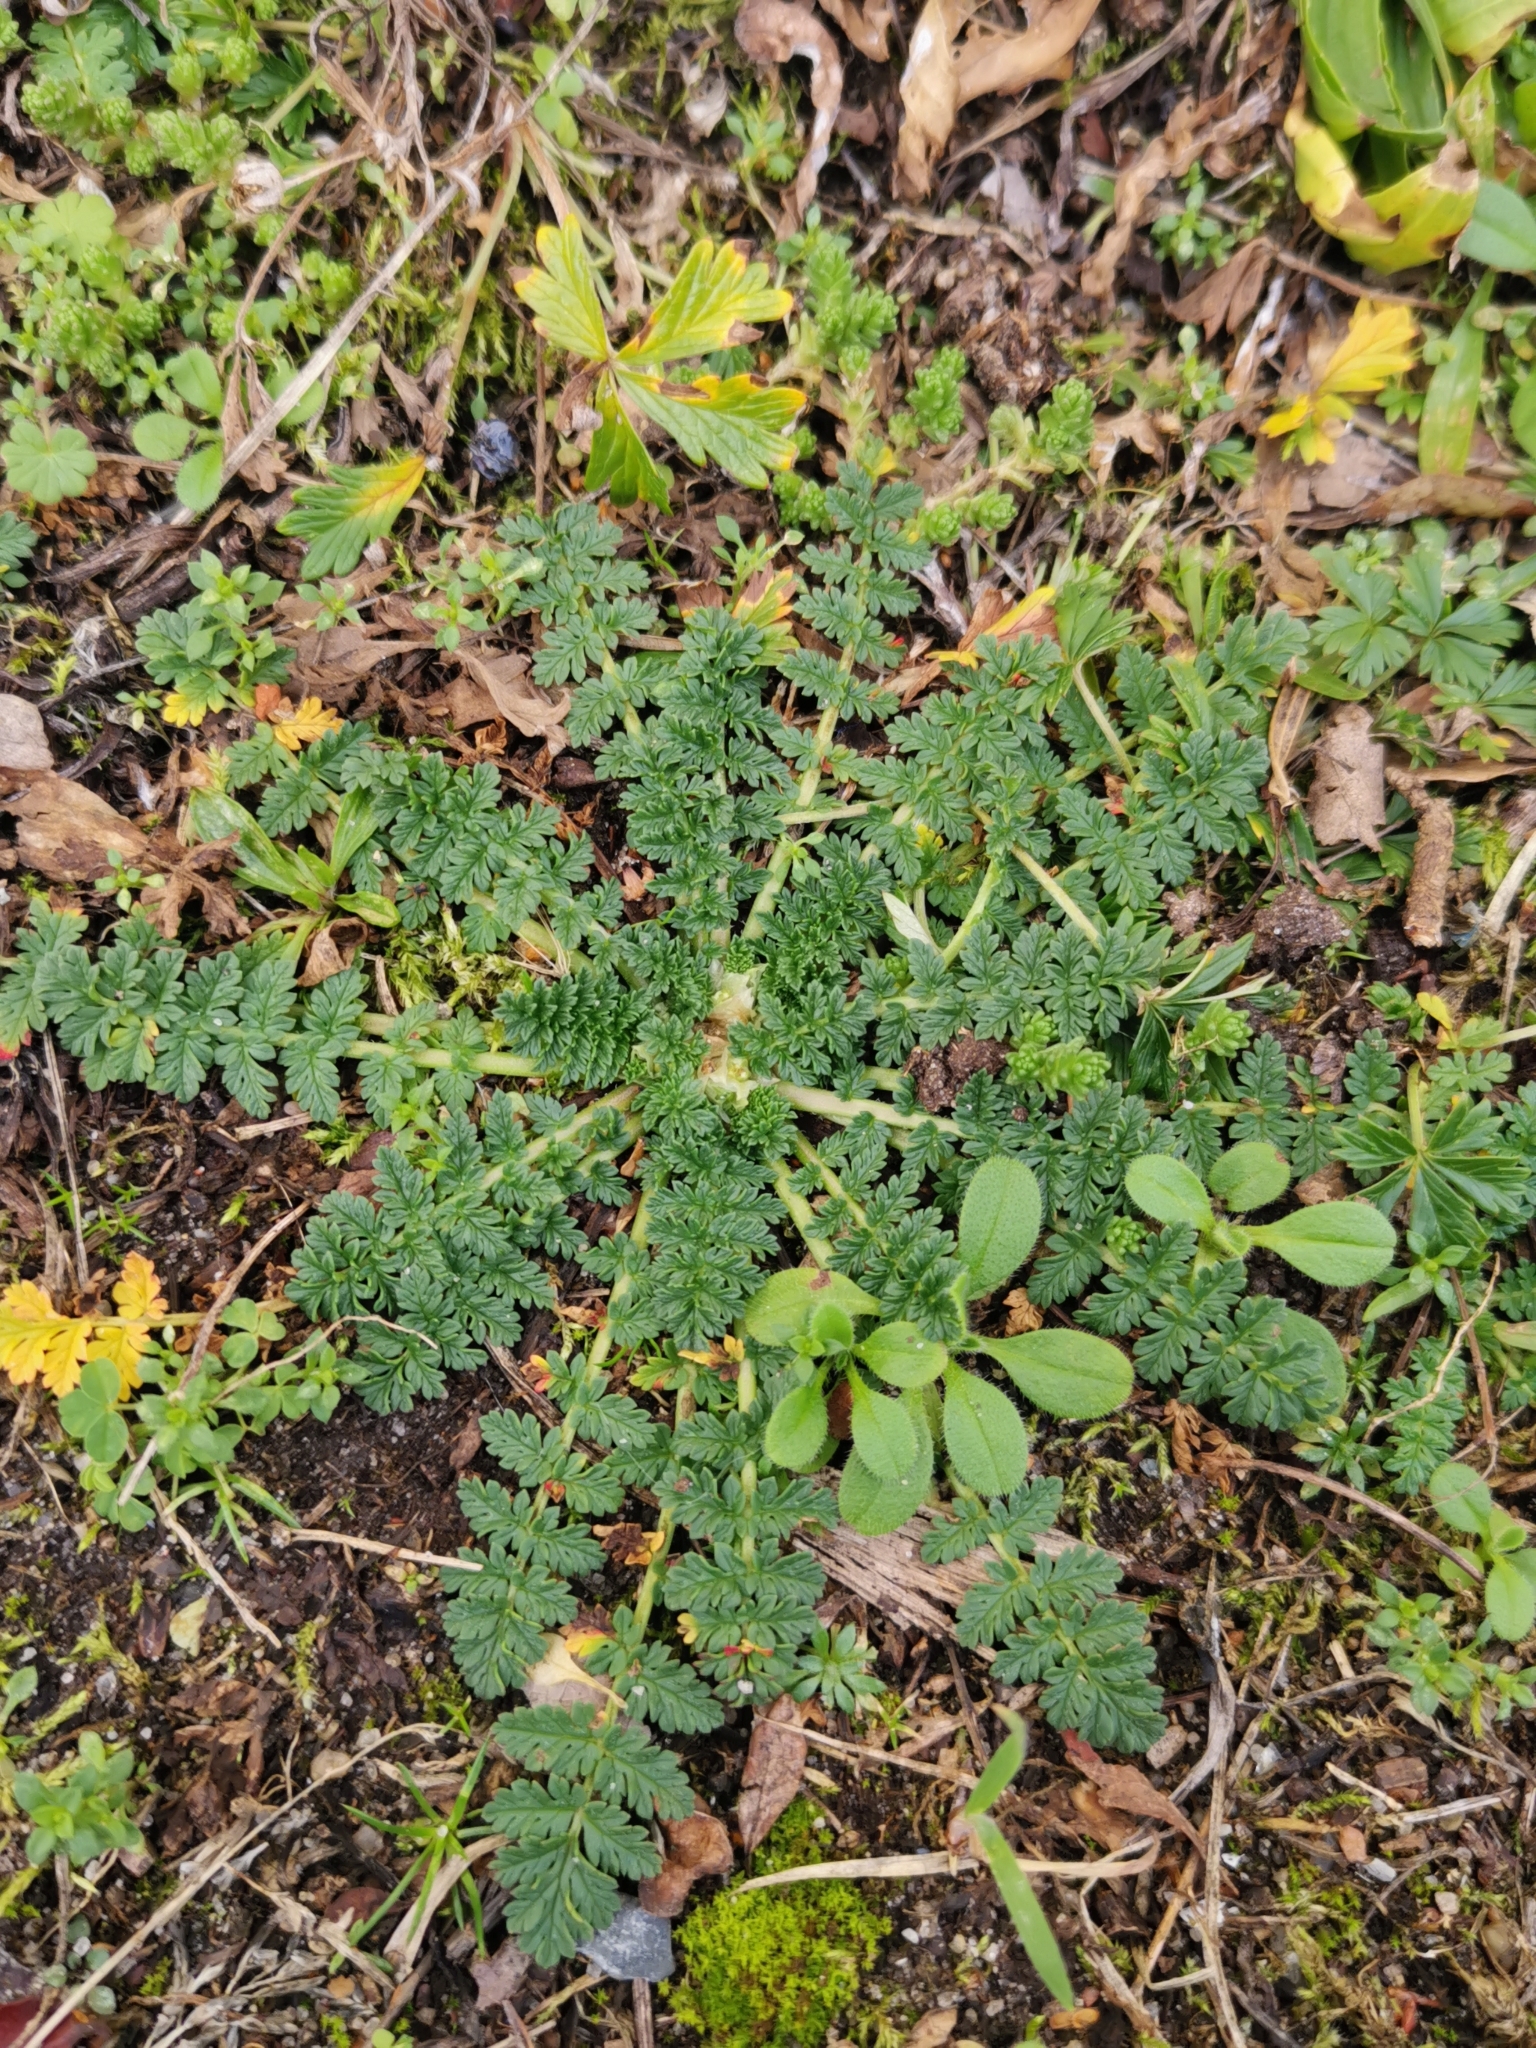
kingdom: Plantae
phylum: Tracheophyta
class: Magnoliopsida
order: Geraniales
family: Geraniaceae
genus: Erodium
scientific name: Erodium cicutarium
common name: Common stork's-bill
